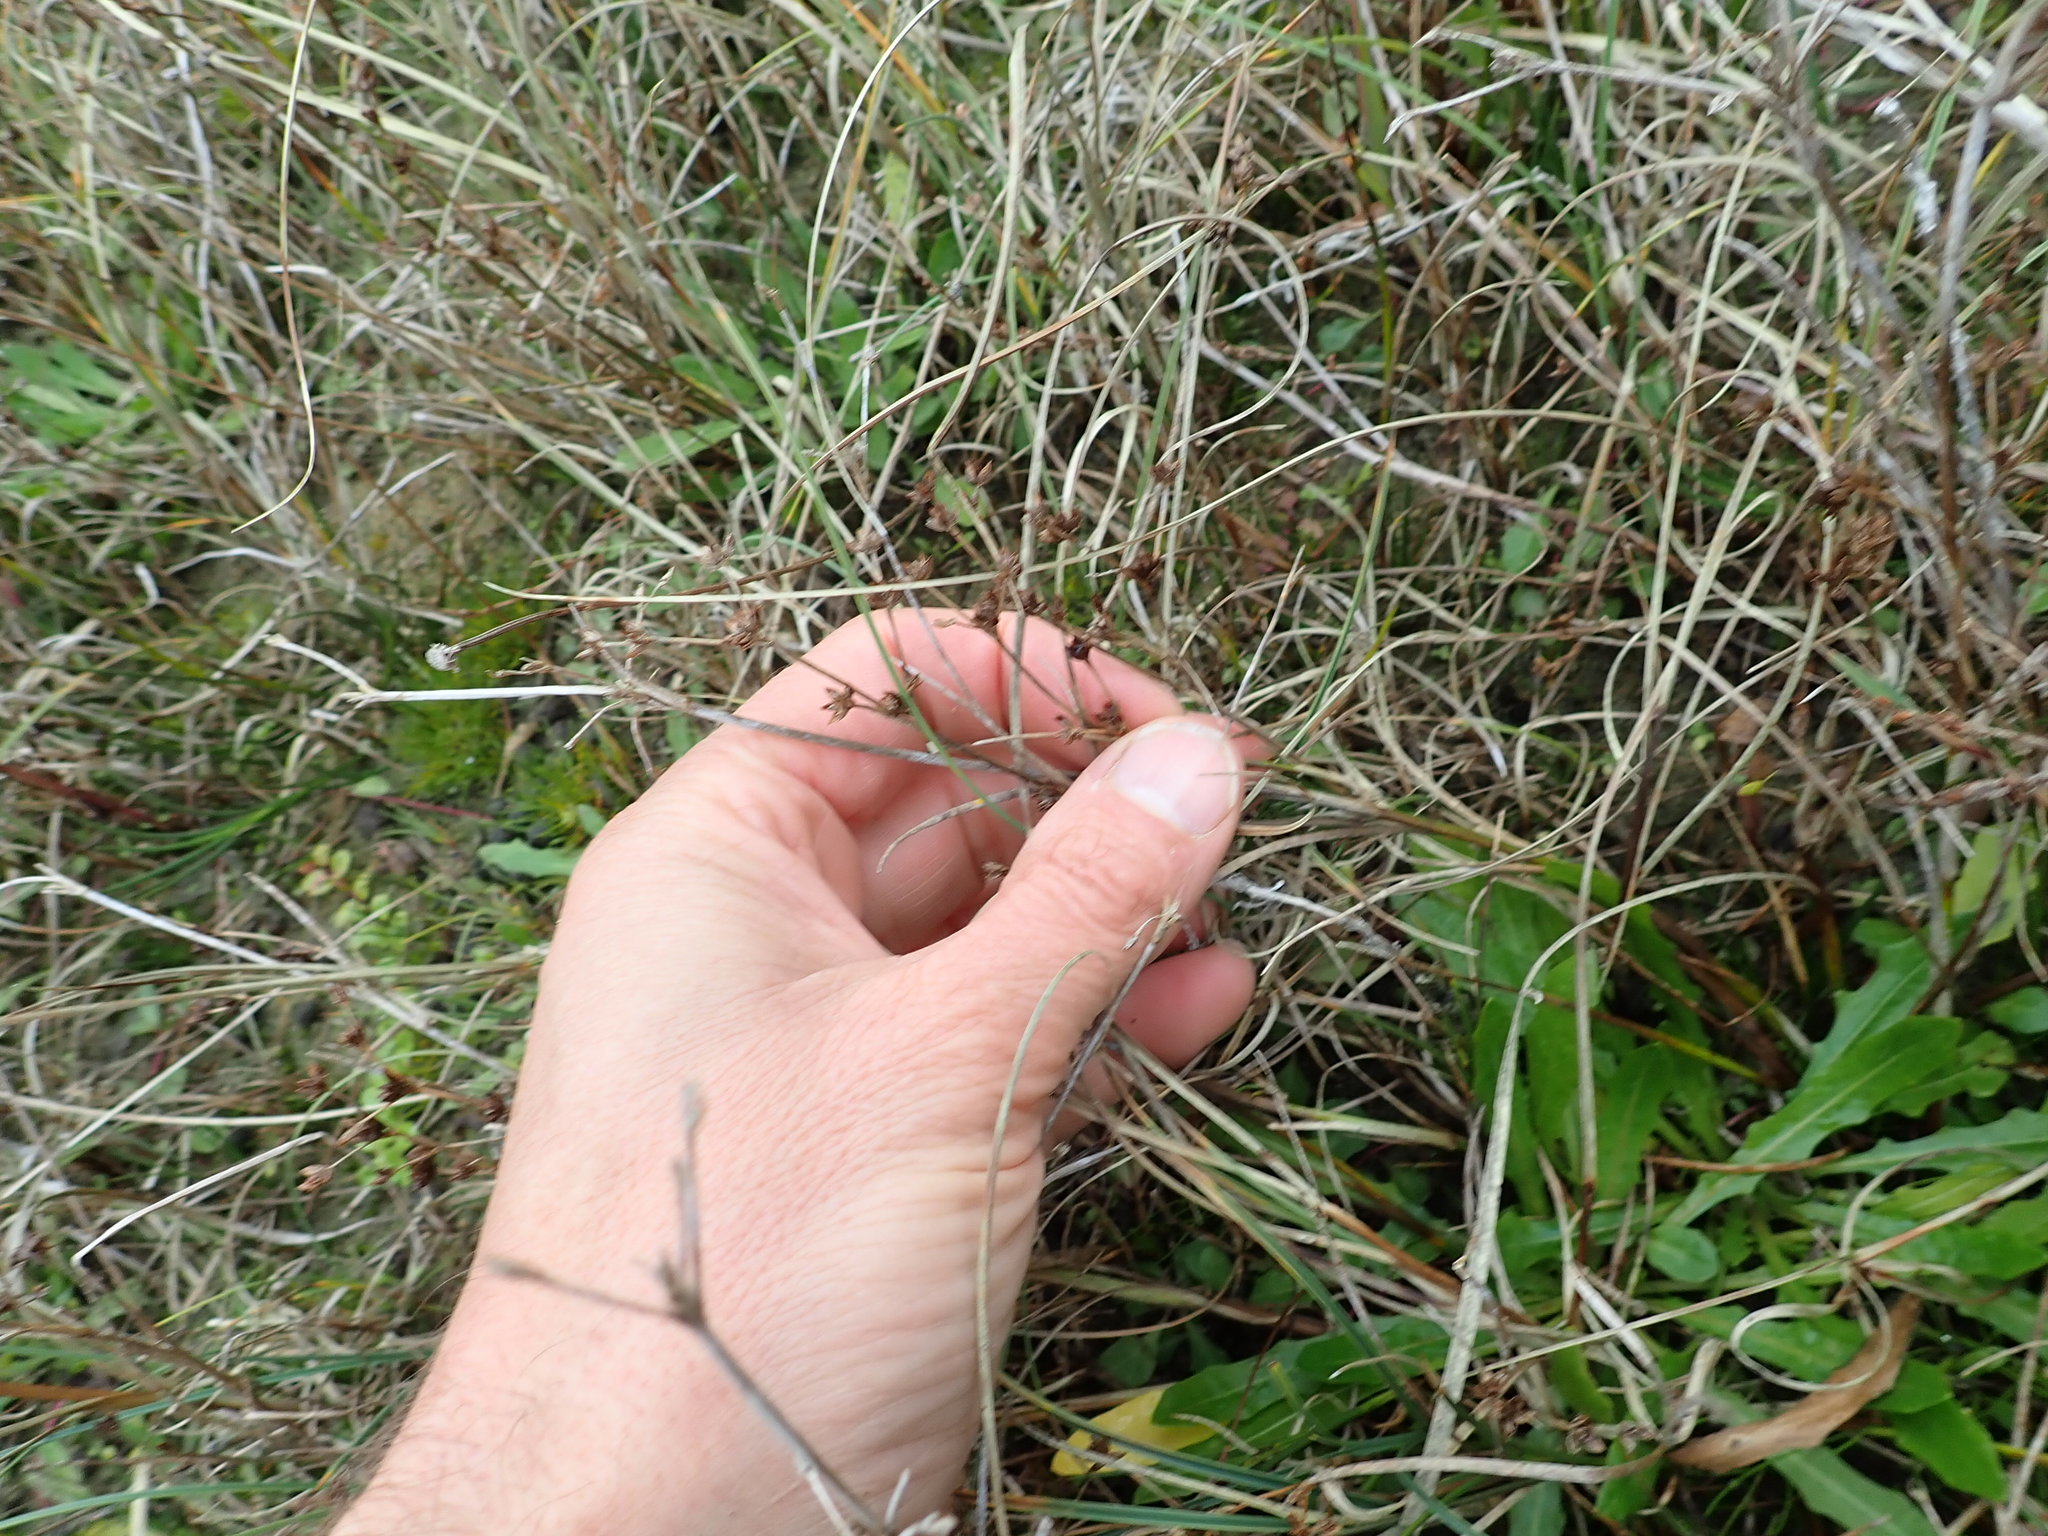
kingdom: Plantae
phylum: Tracheophyta
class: Liliopsida
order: Poales
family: Juncaceae
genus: Juncus
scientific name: Juncus articulatus
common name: Jointed rush
